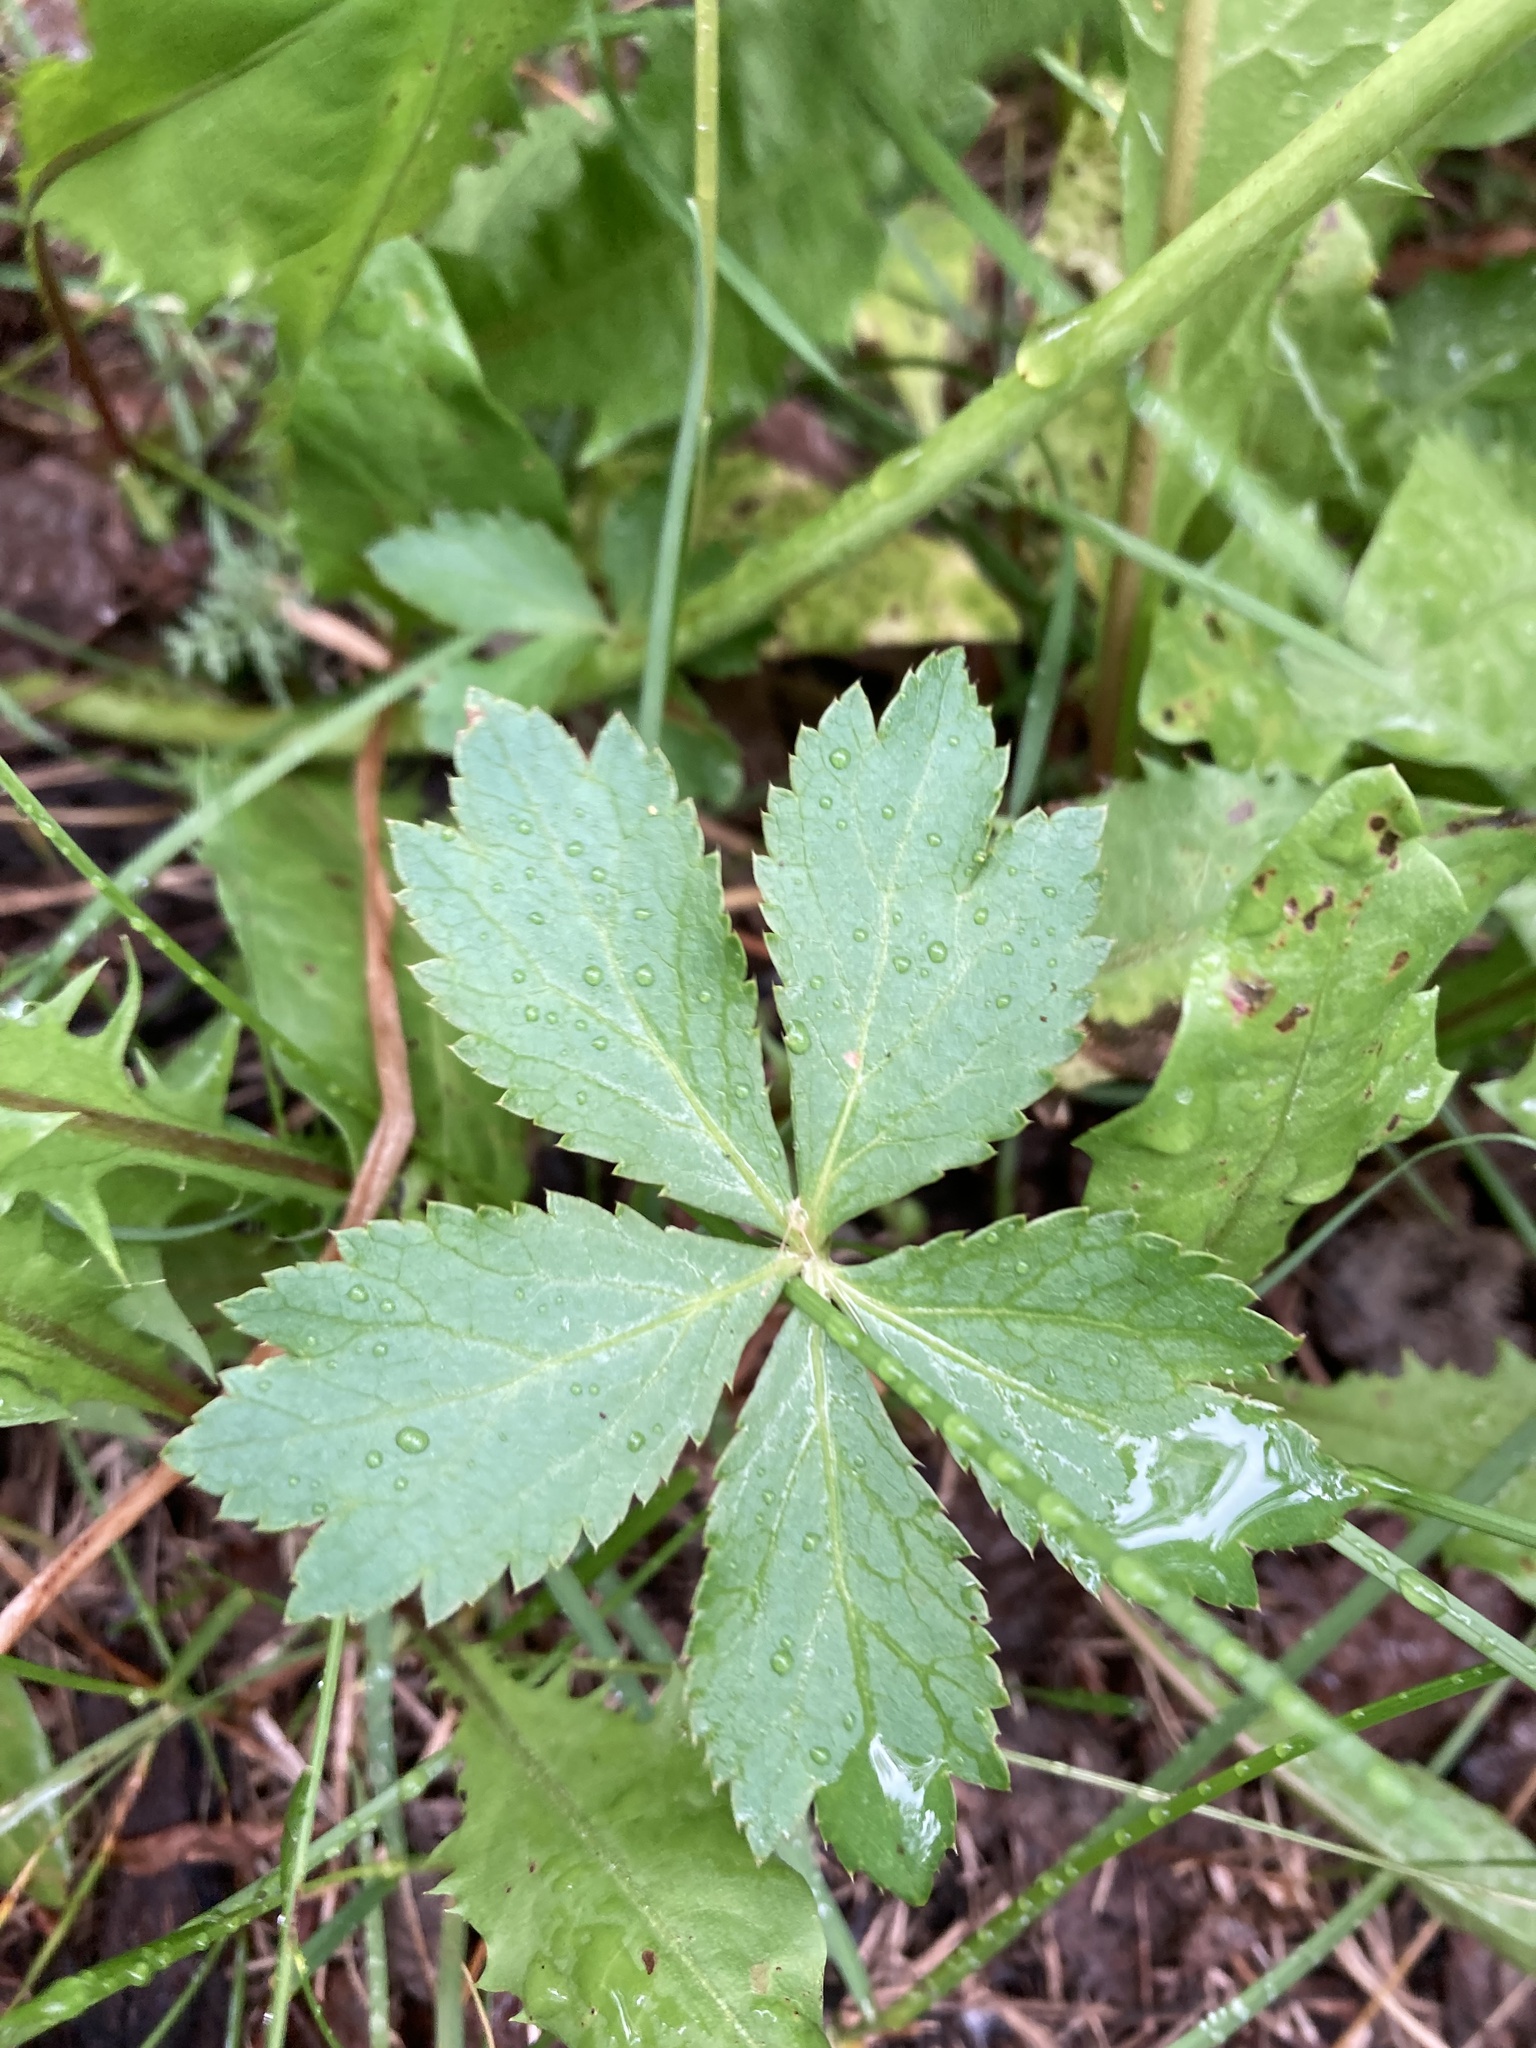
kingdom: Plantae
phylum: Tracheophyta
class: Magnoliopsida
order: Apiales
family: Apiaceae
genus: Sanicula
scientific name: Sanicula marilandica
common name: Black snakeroot
